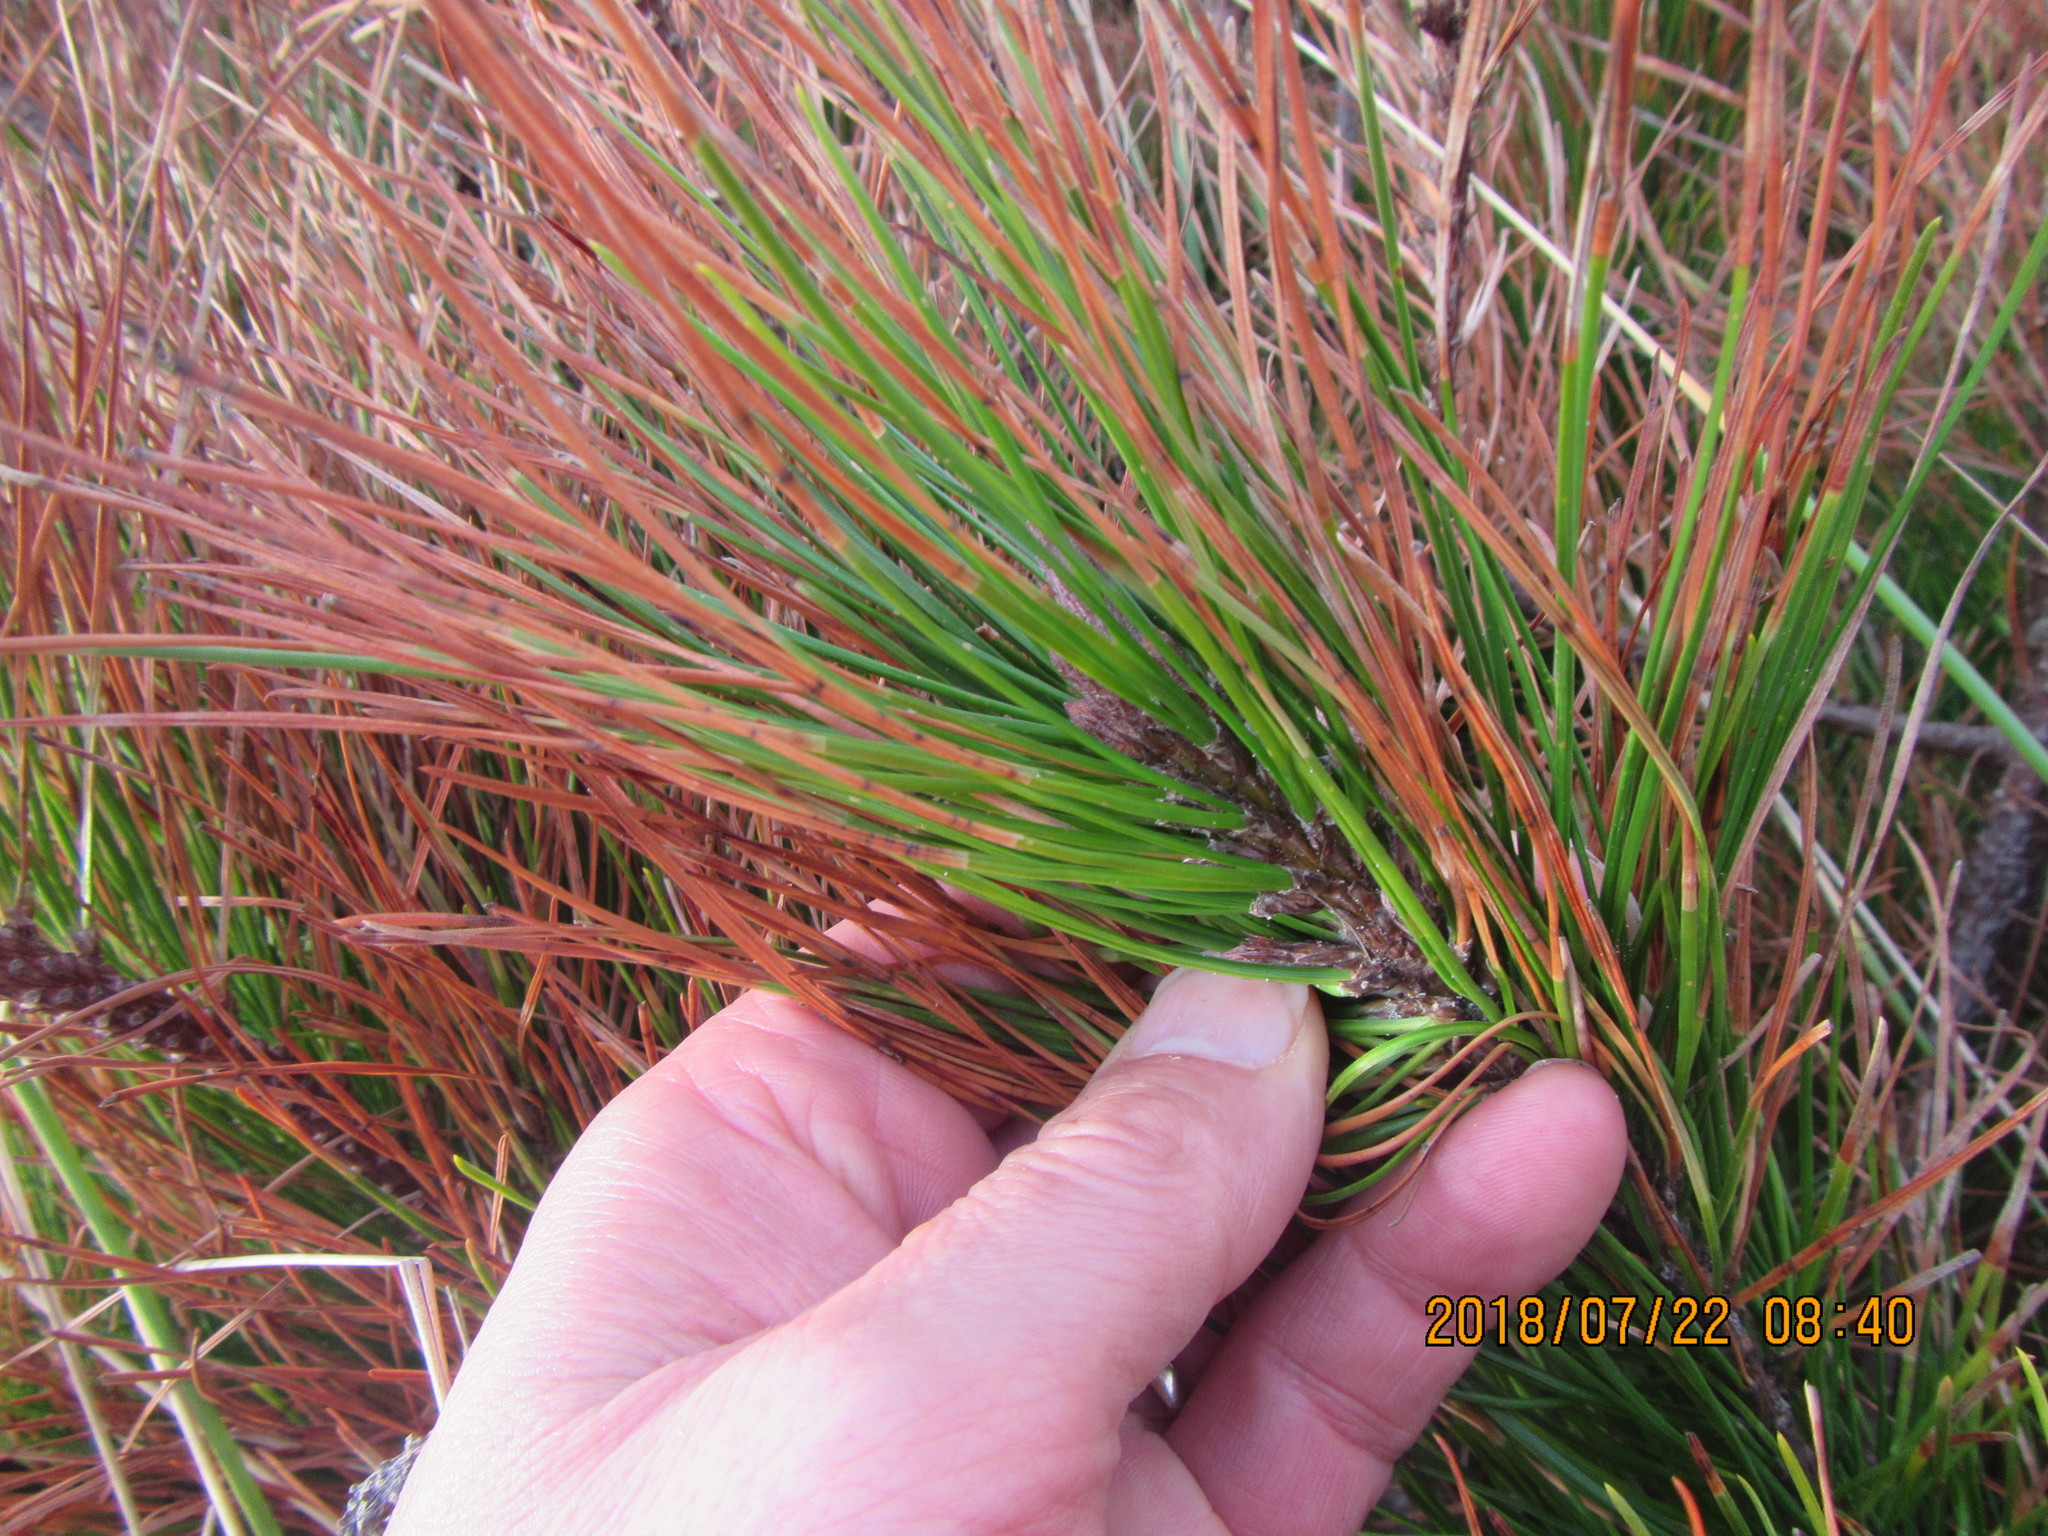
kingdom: Plantae
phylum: Tracheophyta
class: Pinopsida
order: Pinales
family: Pinaceae
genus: Pinus
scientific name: Pinus radiata
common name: Monterey pine
